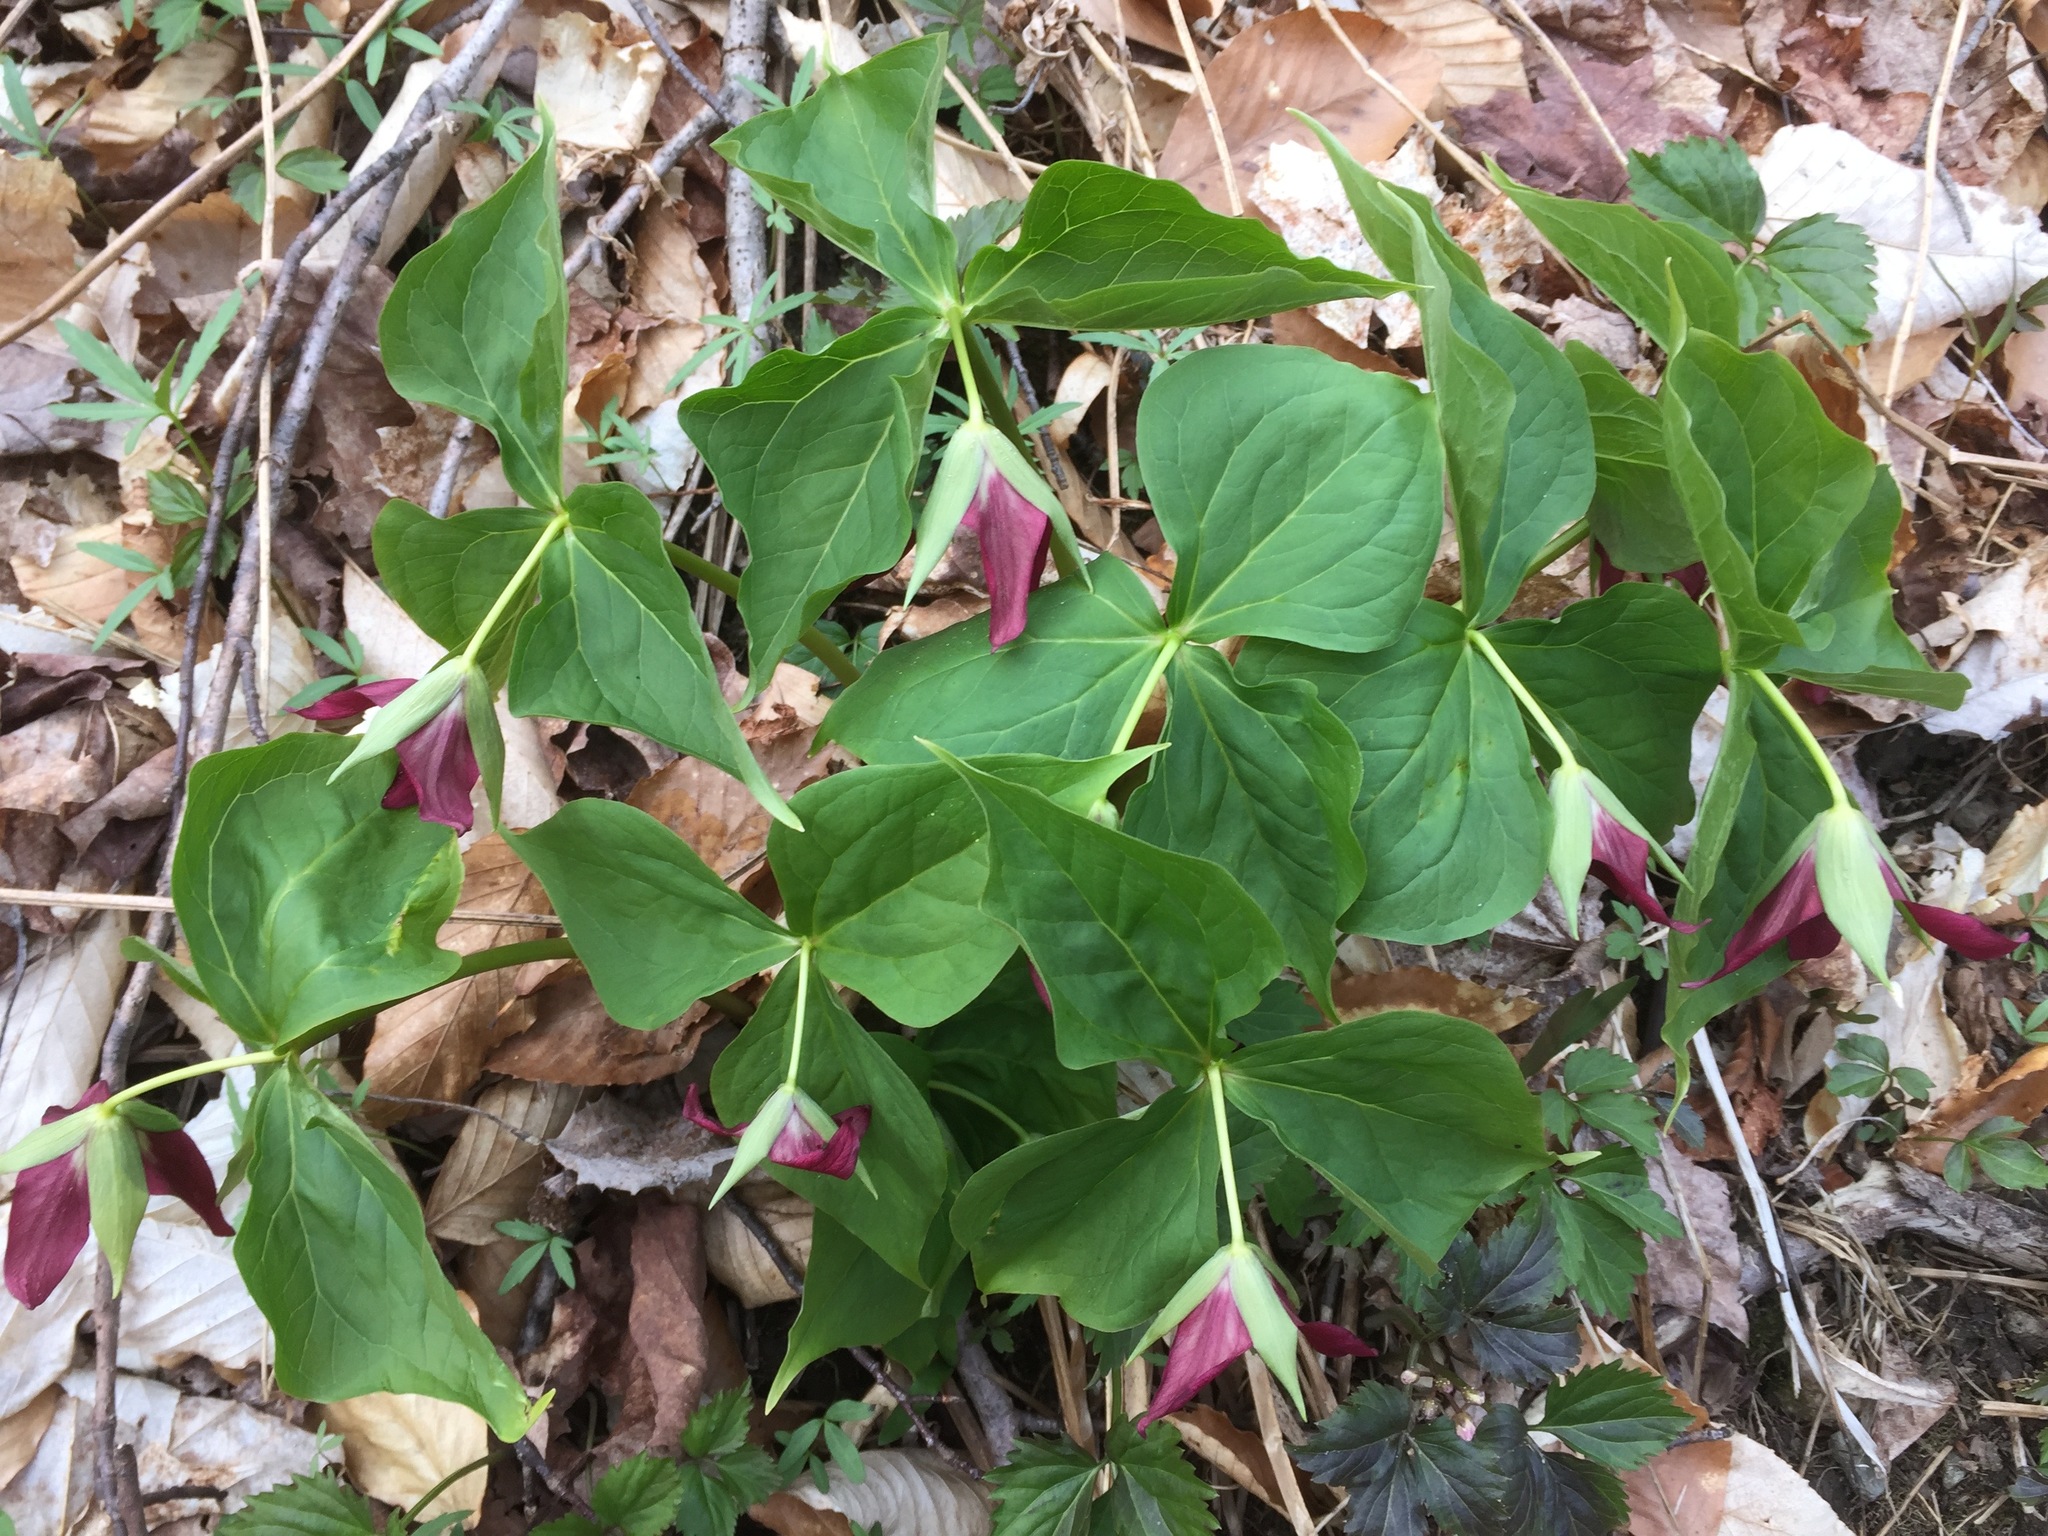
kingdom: Plantae
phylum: Tracheophyta
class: Liliopsida
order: Liliales
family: Melanthiaceae
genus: Trillium
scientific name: Trillium erectum
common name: Purple trillium
